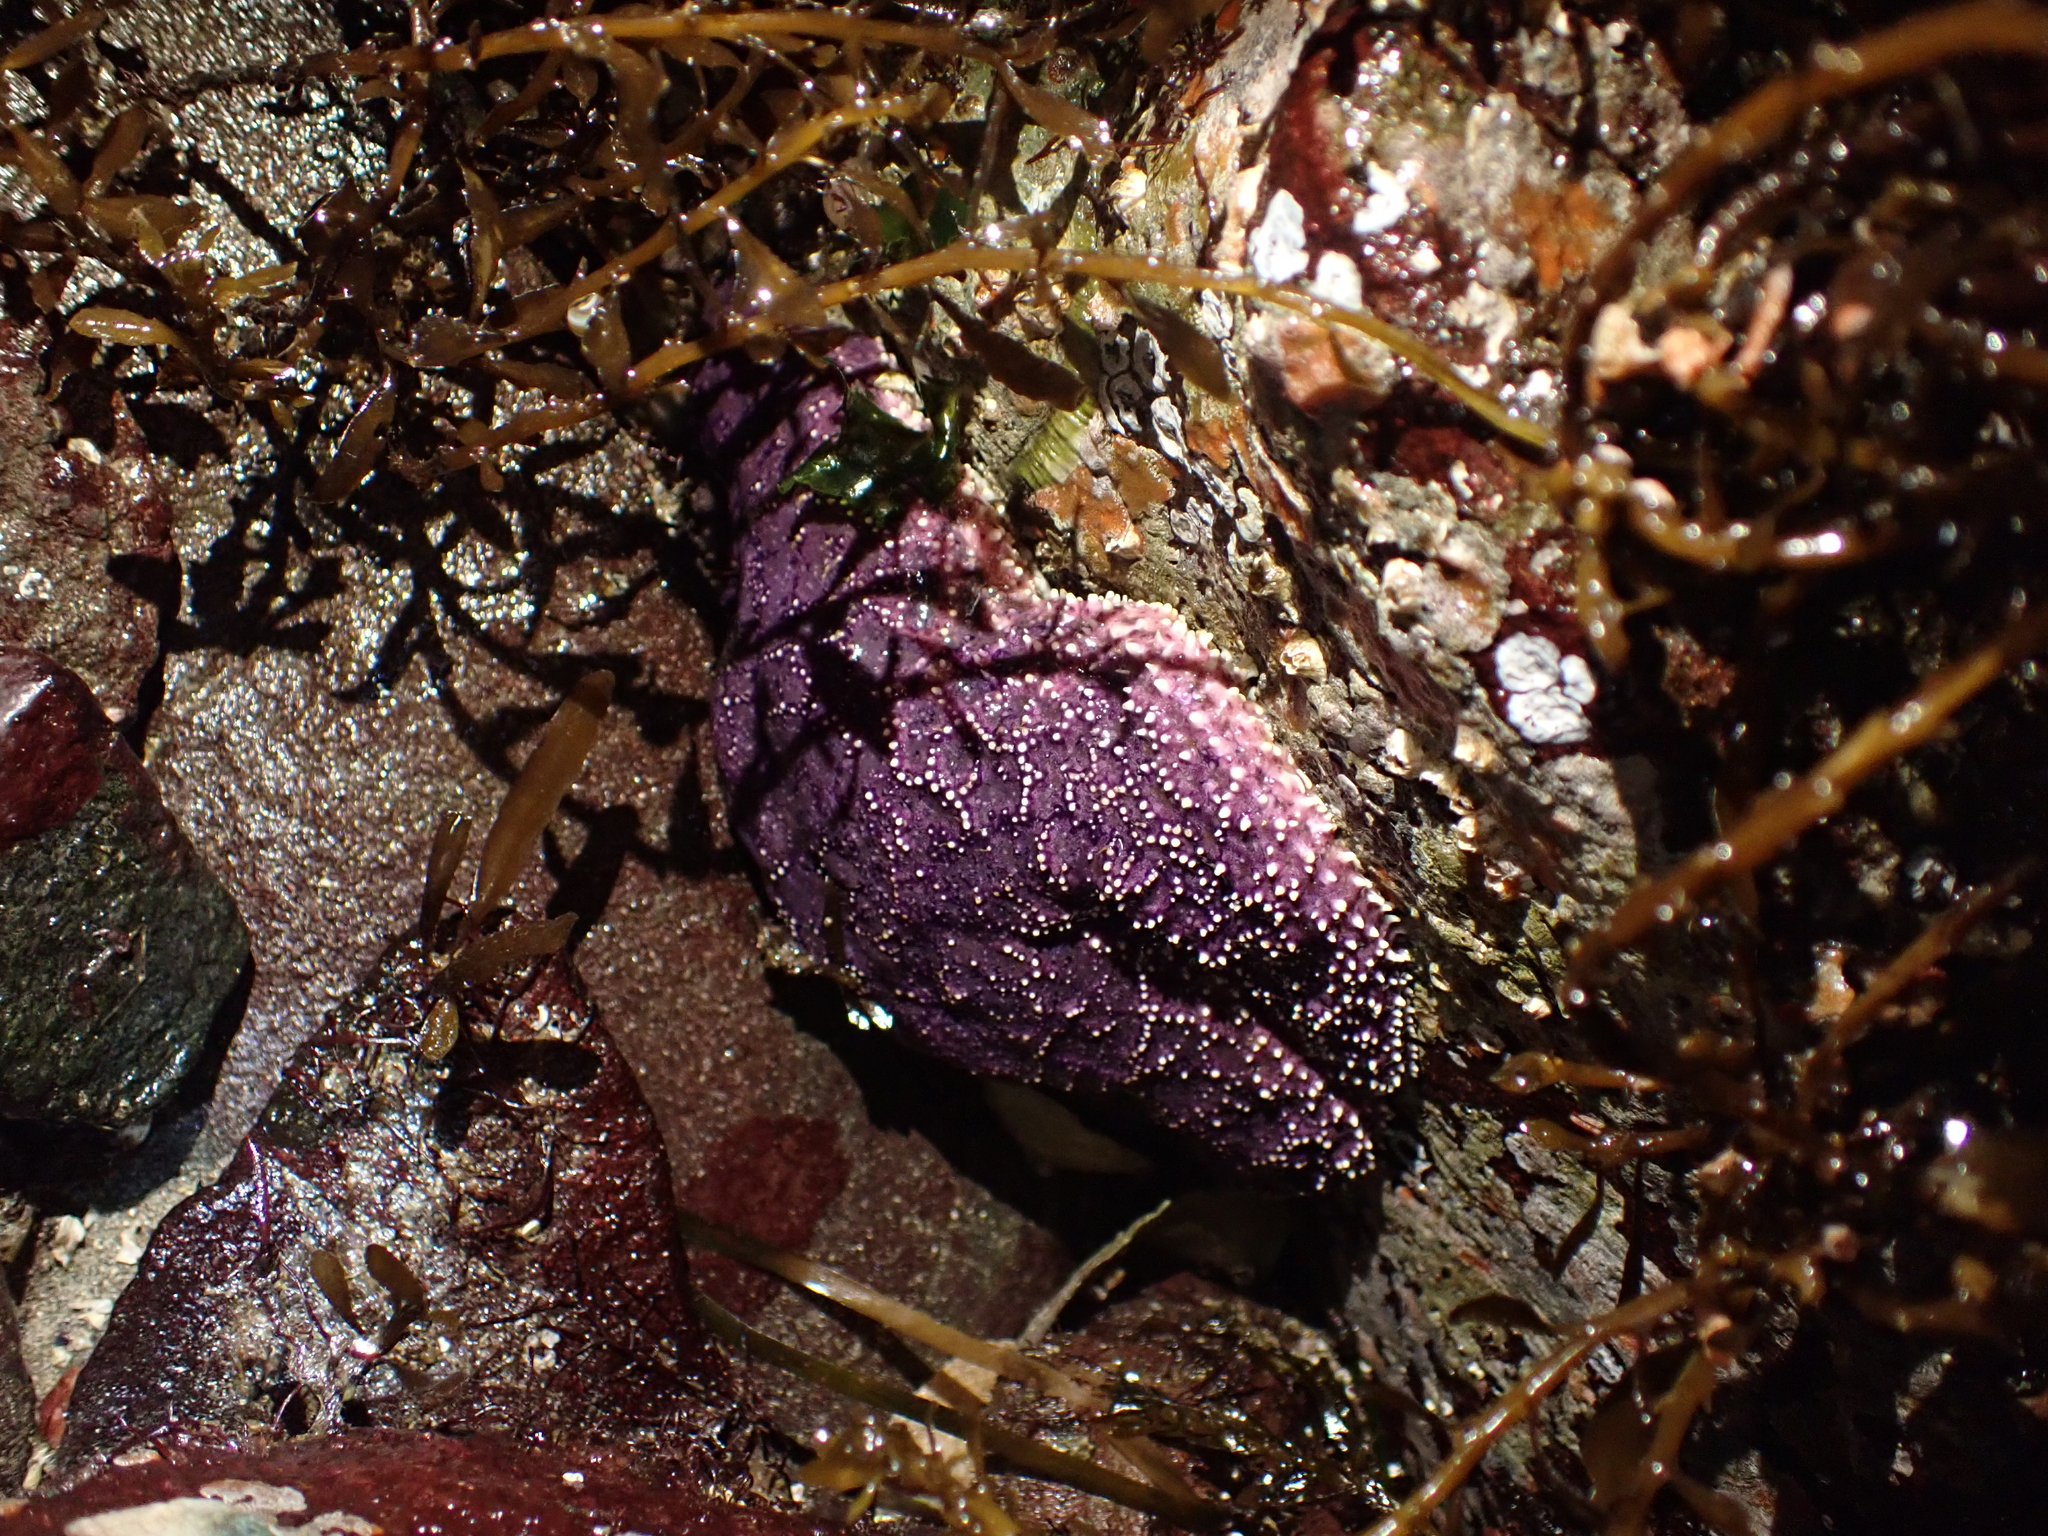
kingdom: Animalia
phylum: Echinodermata
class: Asteroidea
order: Forcipulatida
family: Asteriidae
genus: Pisaster
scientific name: Pisaster ochraceus
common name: Ochre stars
